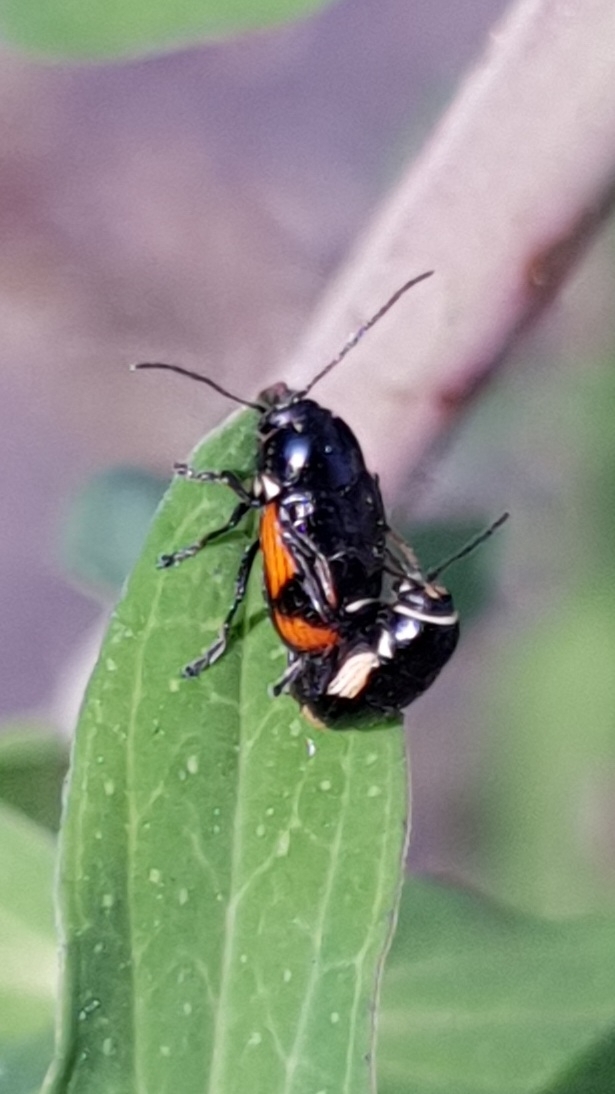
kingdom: Animalia
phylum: Arthropoda
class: Insecta
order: Coleoptera
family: Chrysomelidae
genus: Cryptocephalus
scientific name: Cryptocephalus moraei
